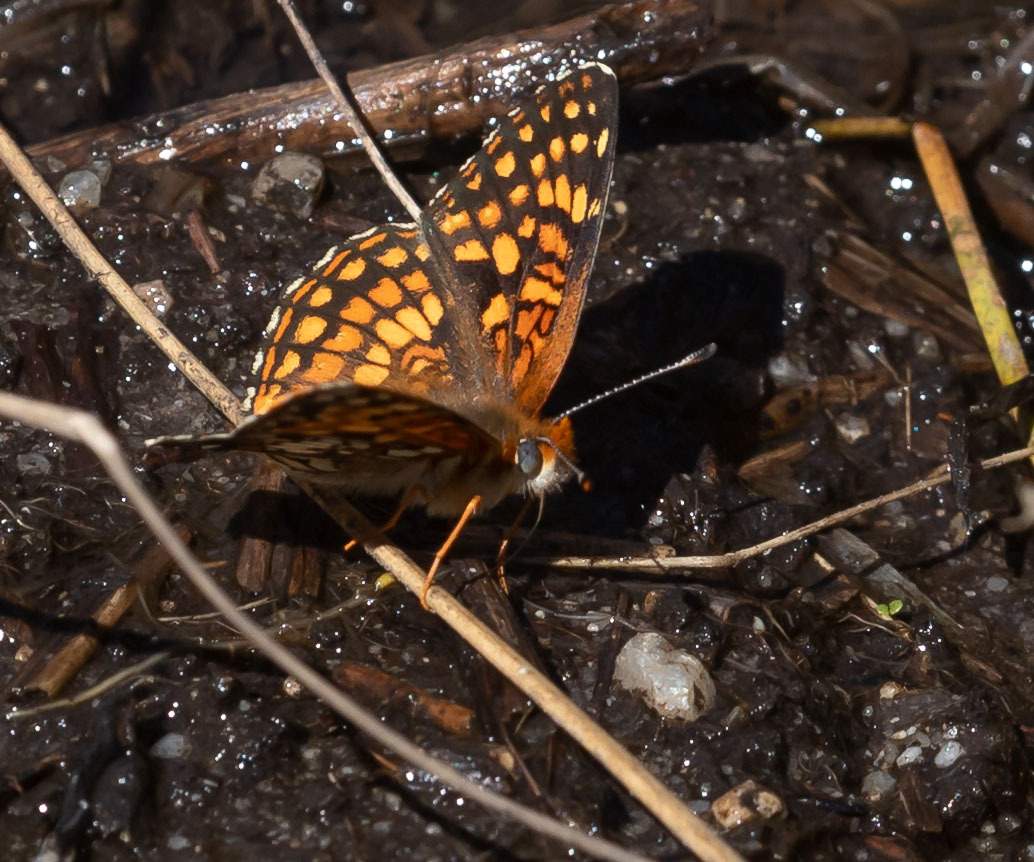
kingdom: Animalia
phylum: Arthropoda
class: Insecta
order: Lepidoptera
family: Nymphalidae
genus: Chlosyne
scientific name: Chlosyne gabbii
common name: Gabb's checkerspot
